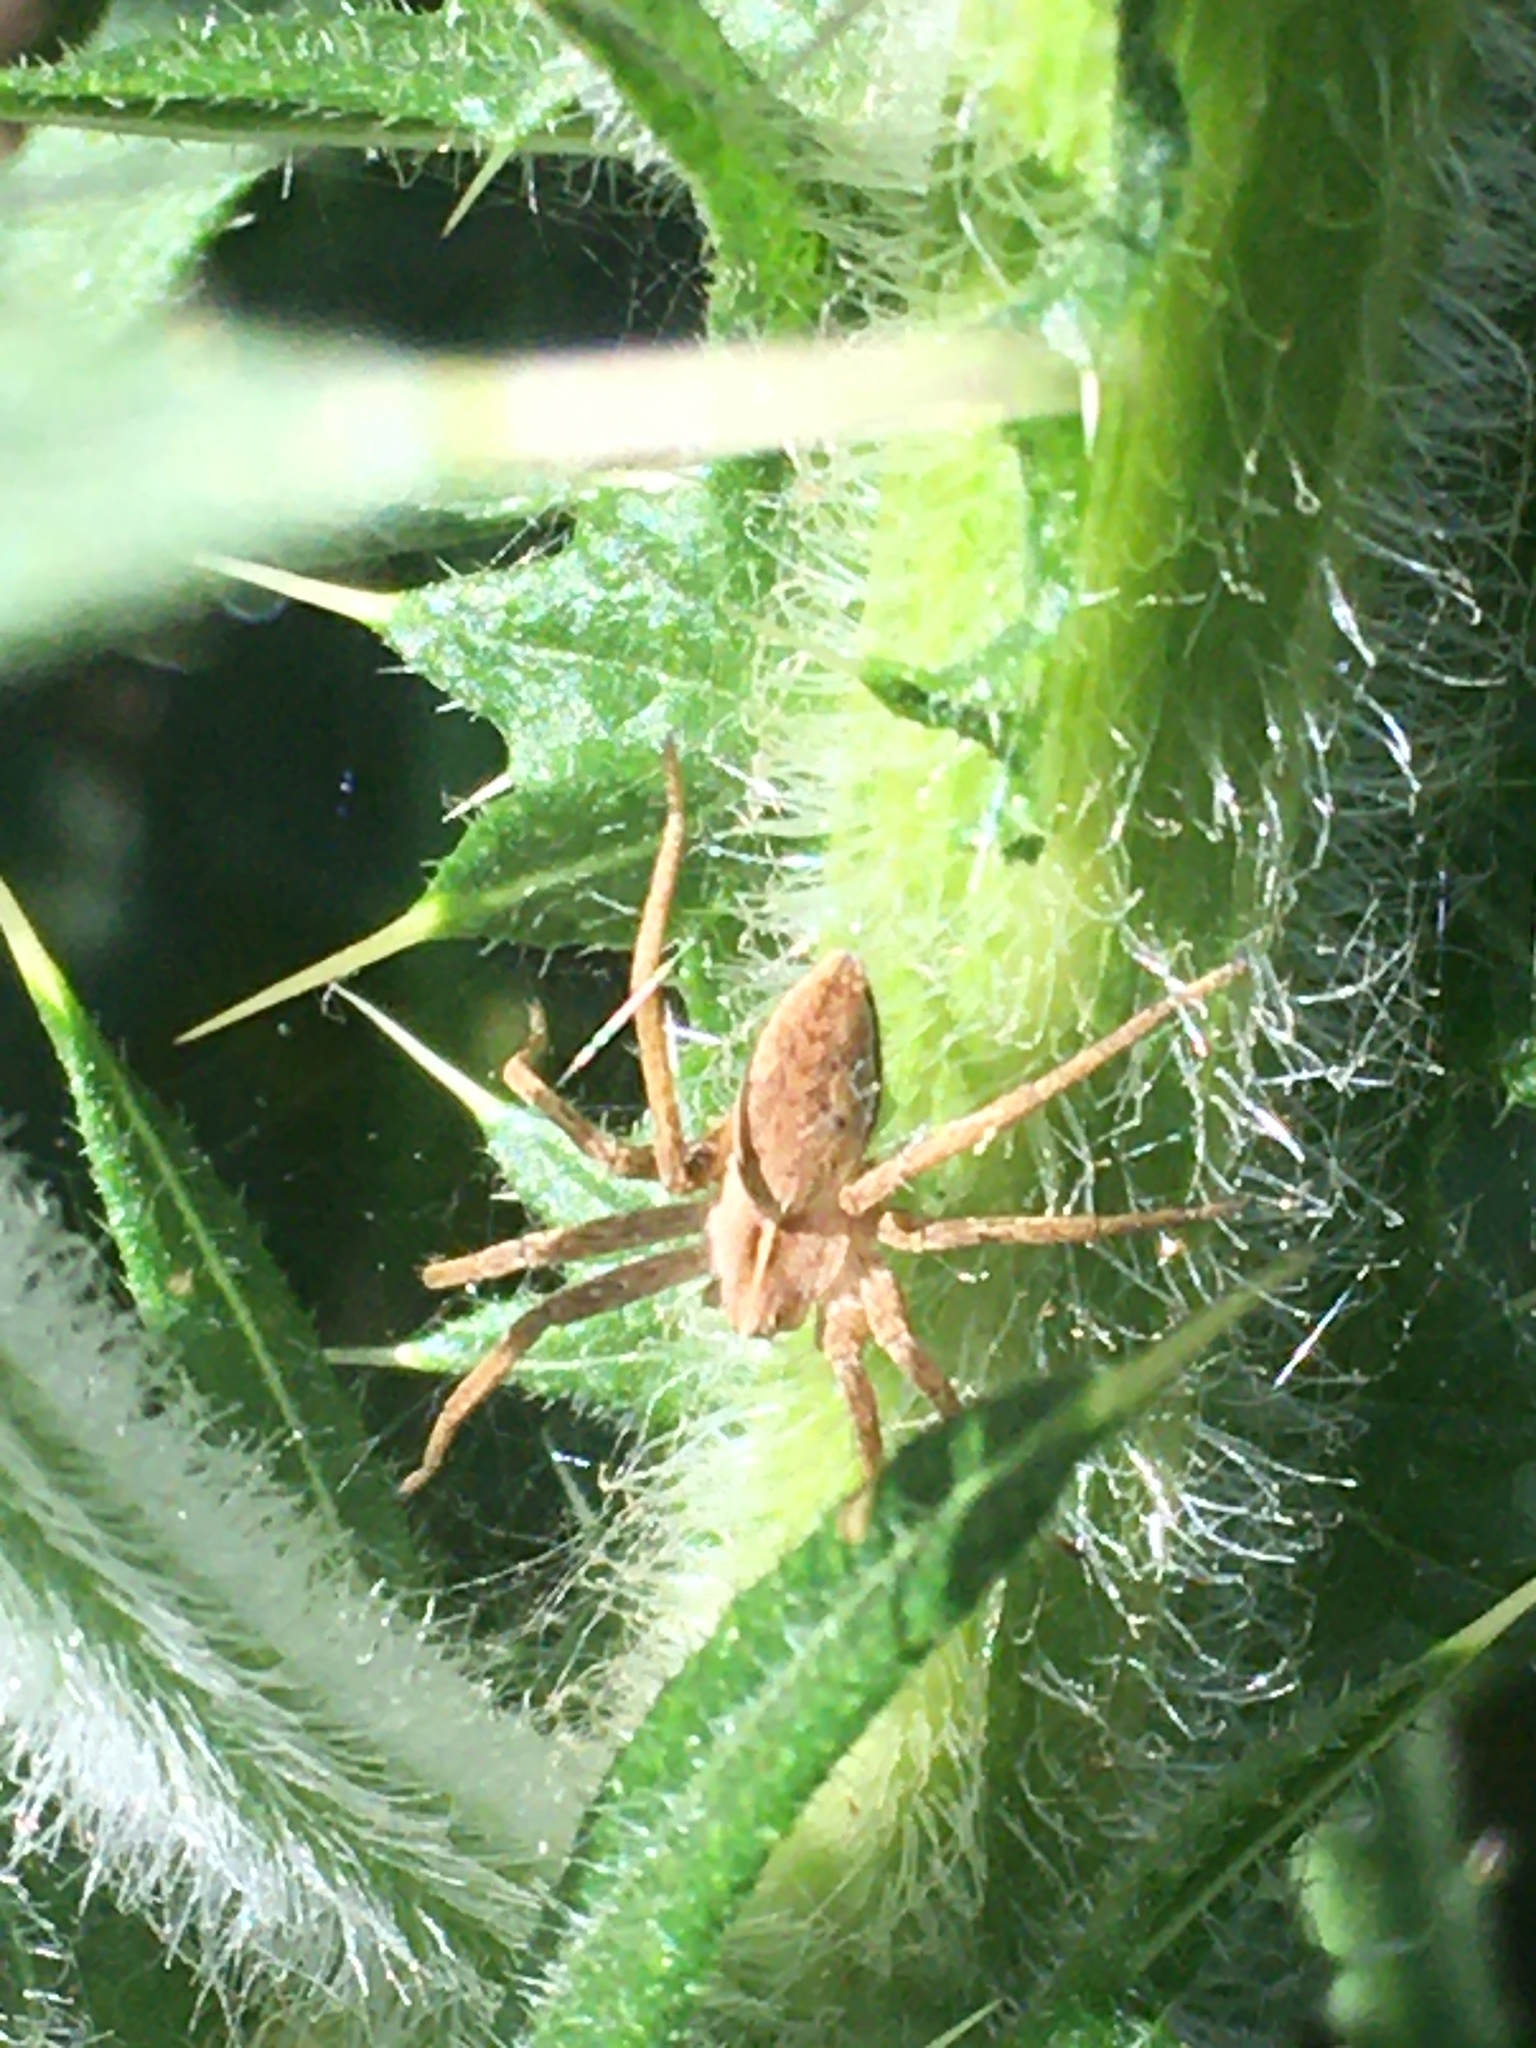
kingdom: Animalia
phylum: Arthropoda
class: Arachnida
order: Araneae
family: Pisauridae
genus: Pisaura
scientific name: Pisaura mirabilis
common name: Tent spider
